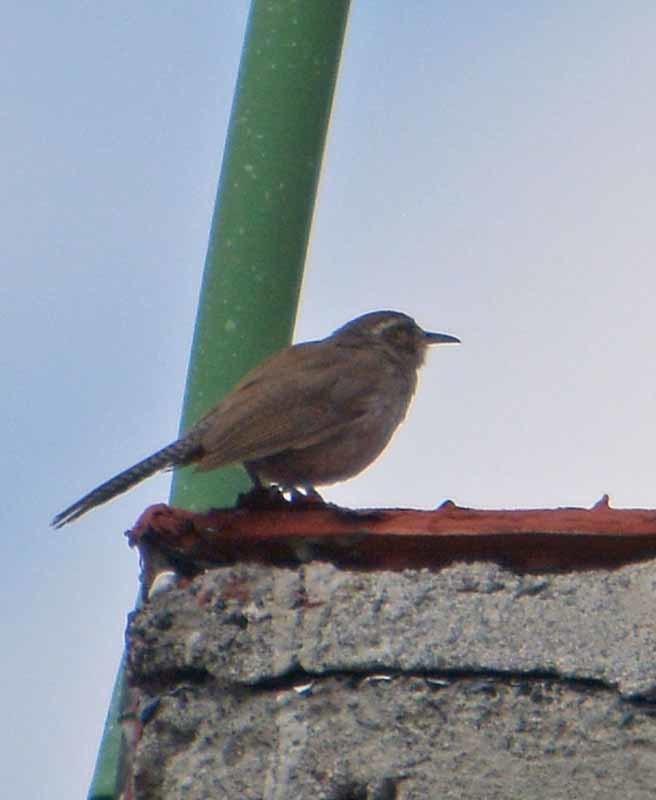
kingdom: Animalia
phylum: Chordata
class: Aves
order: Passeriformes
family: Troglodytidae
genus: Thryomanes
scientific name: Thryomanes bewickii
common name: Bewick's wren
